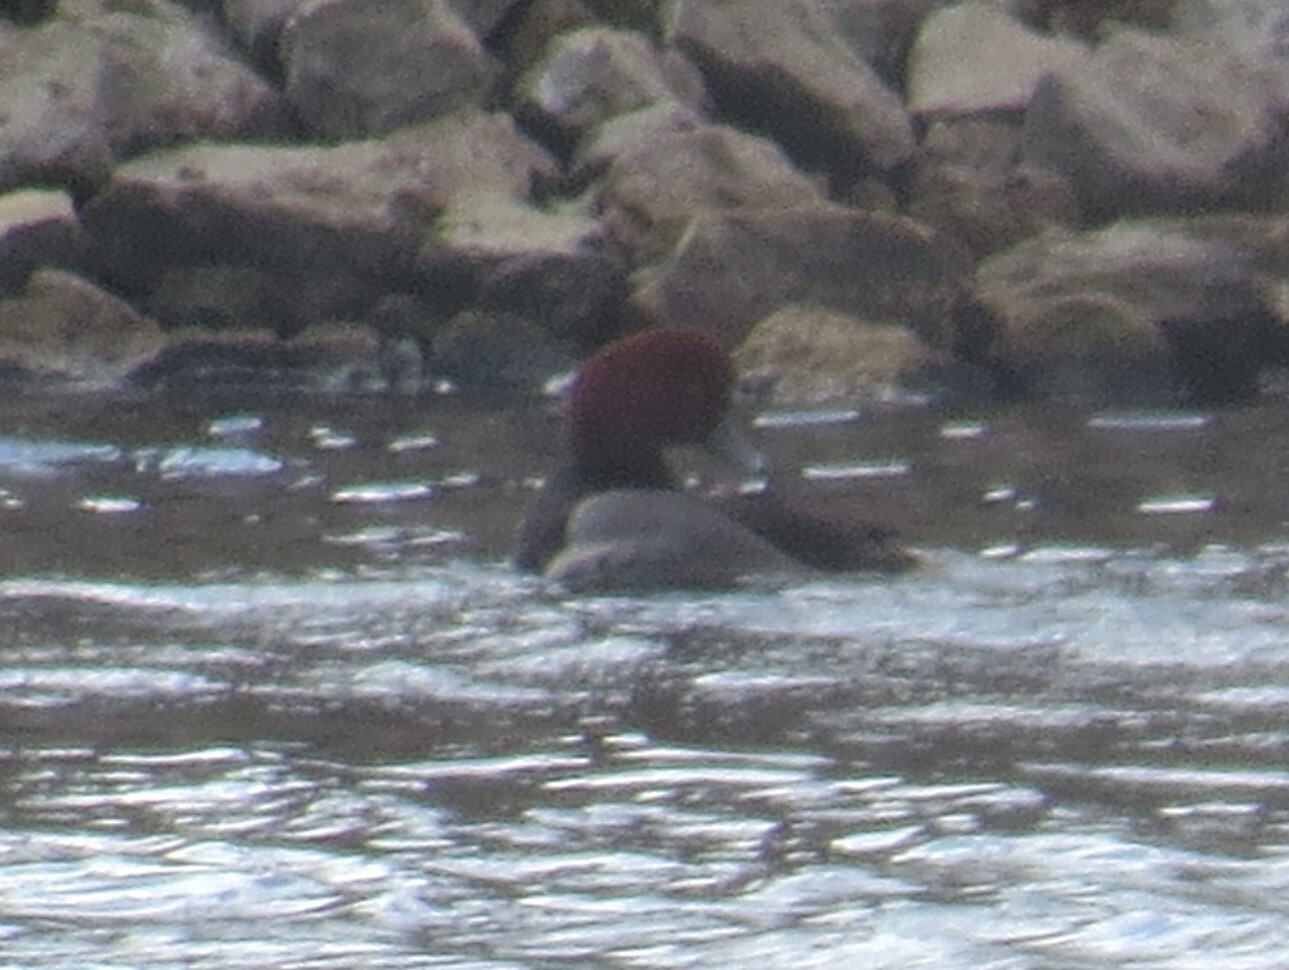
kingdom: Animalia
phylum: Chordata
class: Aves
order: Anseriformes
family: Anatidae
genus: Aythya
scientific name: Aythya americana
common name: Redhead
